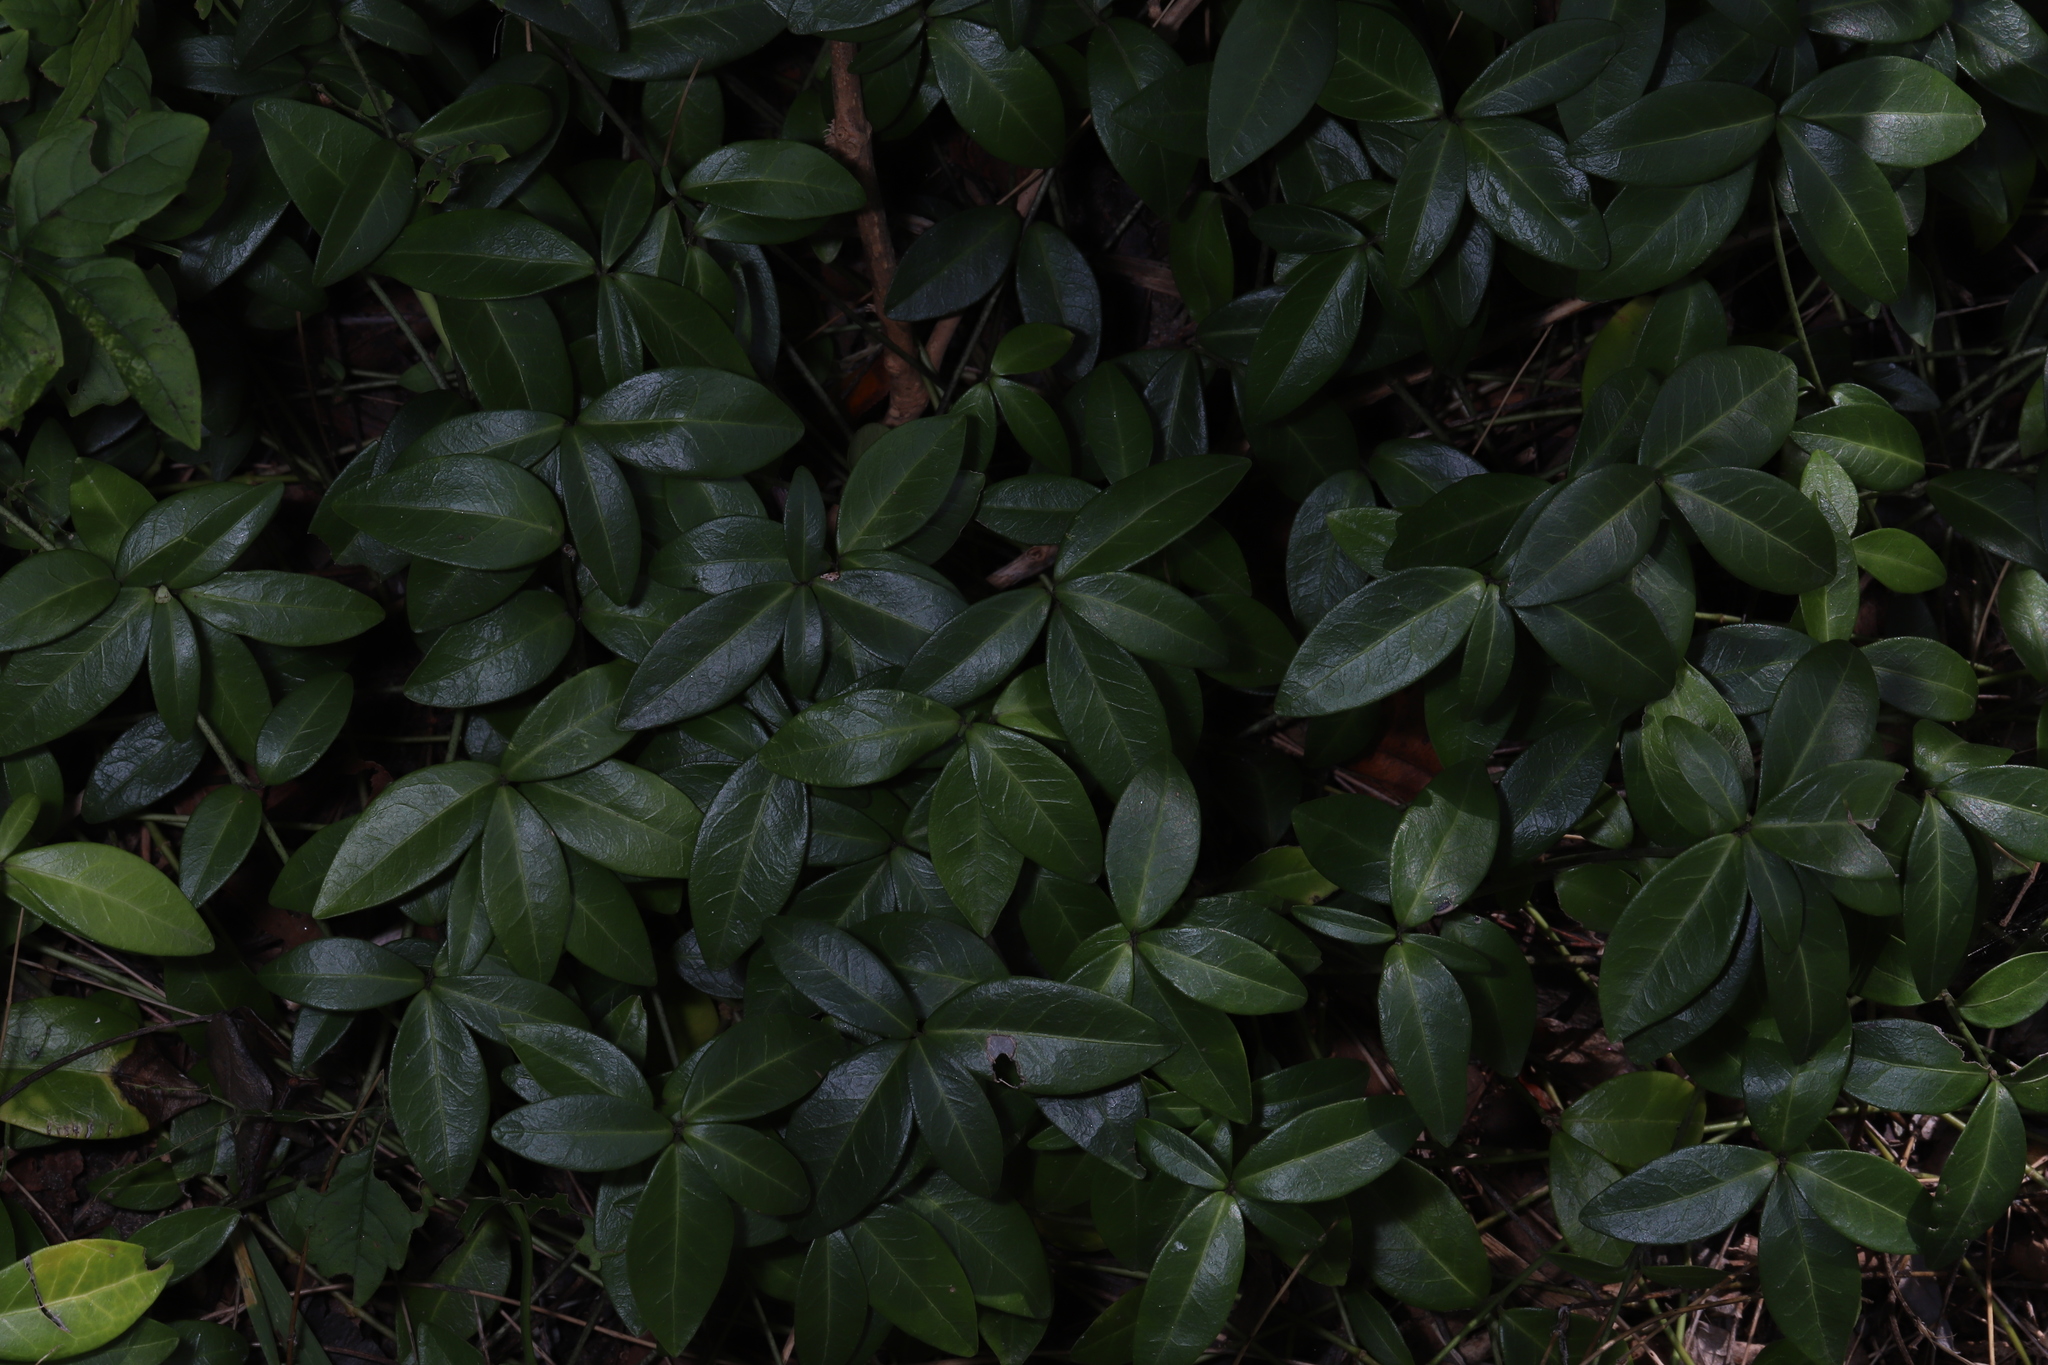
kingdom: Plantae
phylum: Tracheophyta
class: Magnoliopsida
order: Gentianales
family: Apocynaceae
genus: Vinca
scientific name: Vinca minor
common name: Lesser periwinkle
